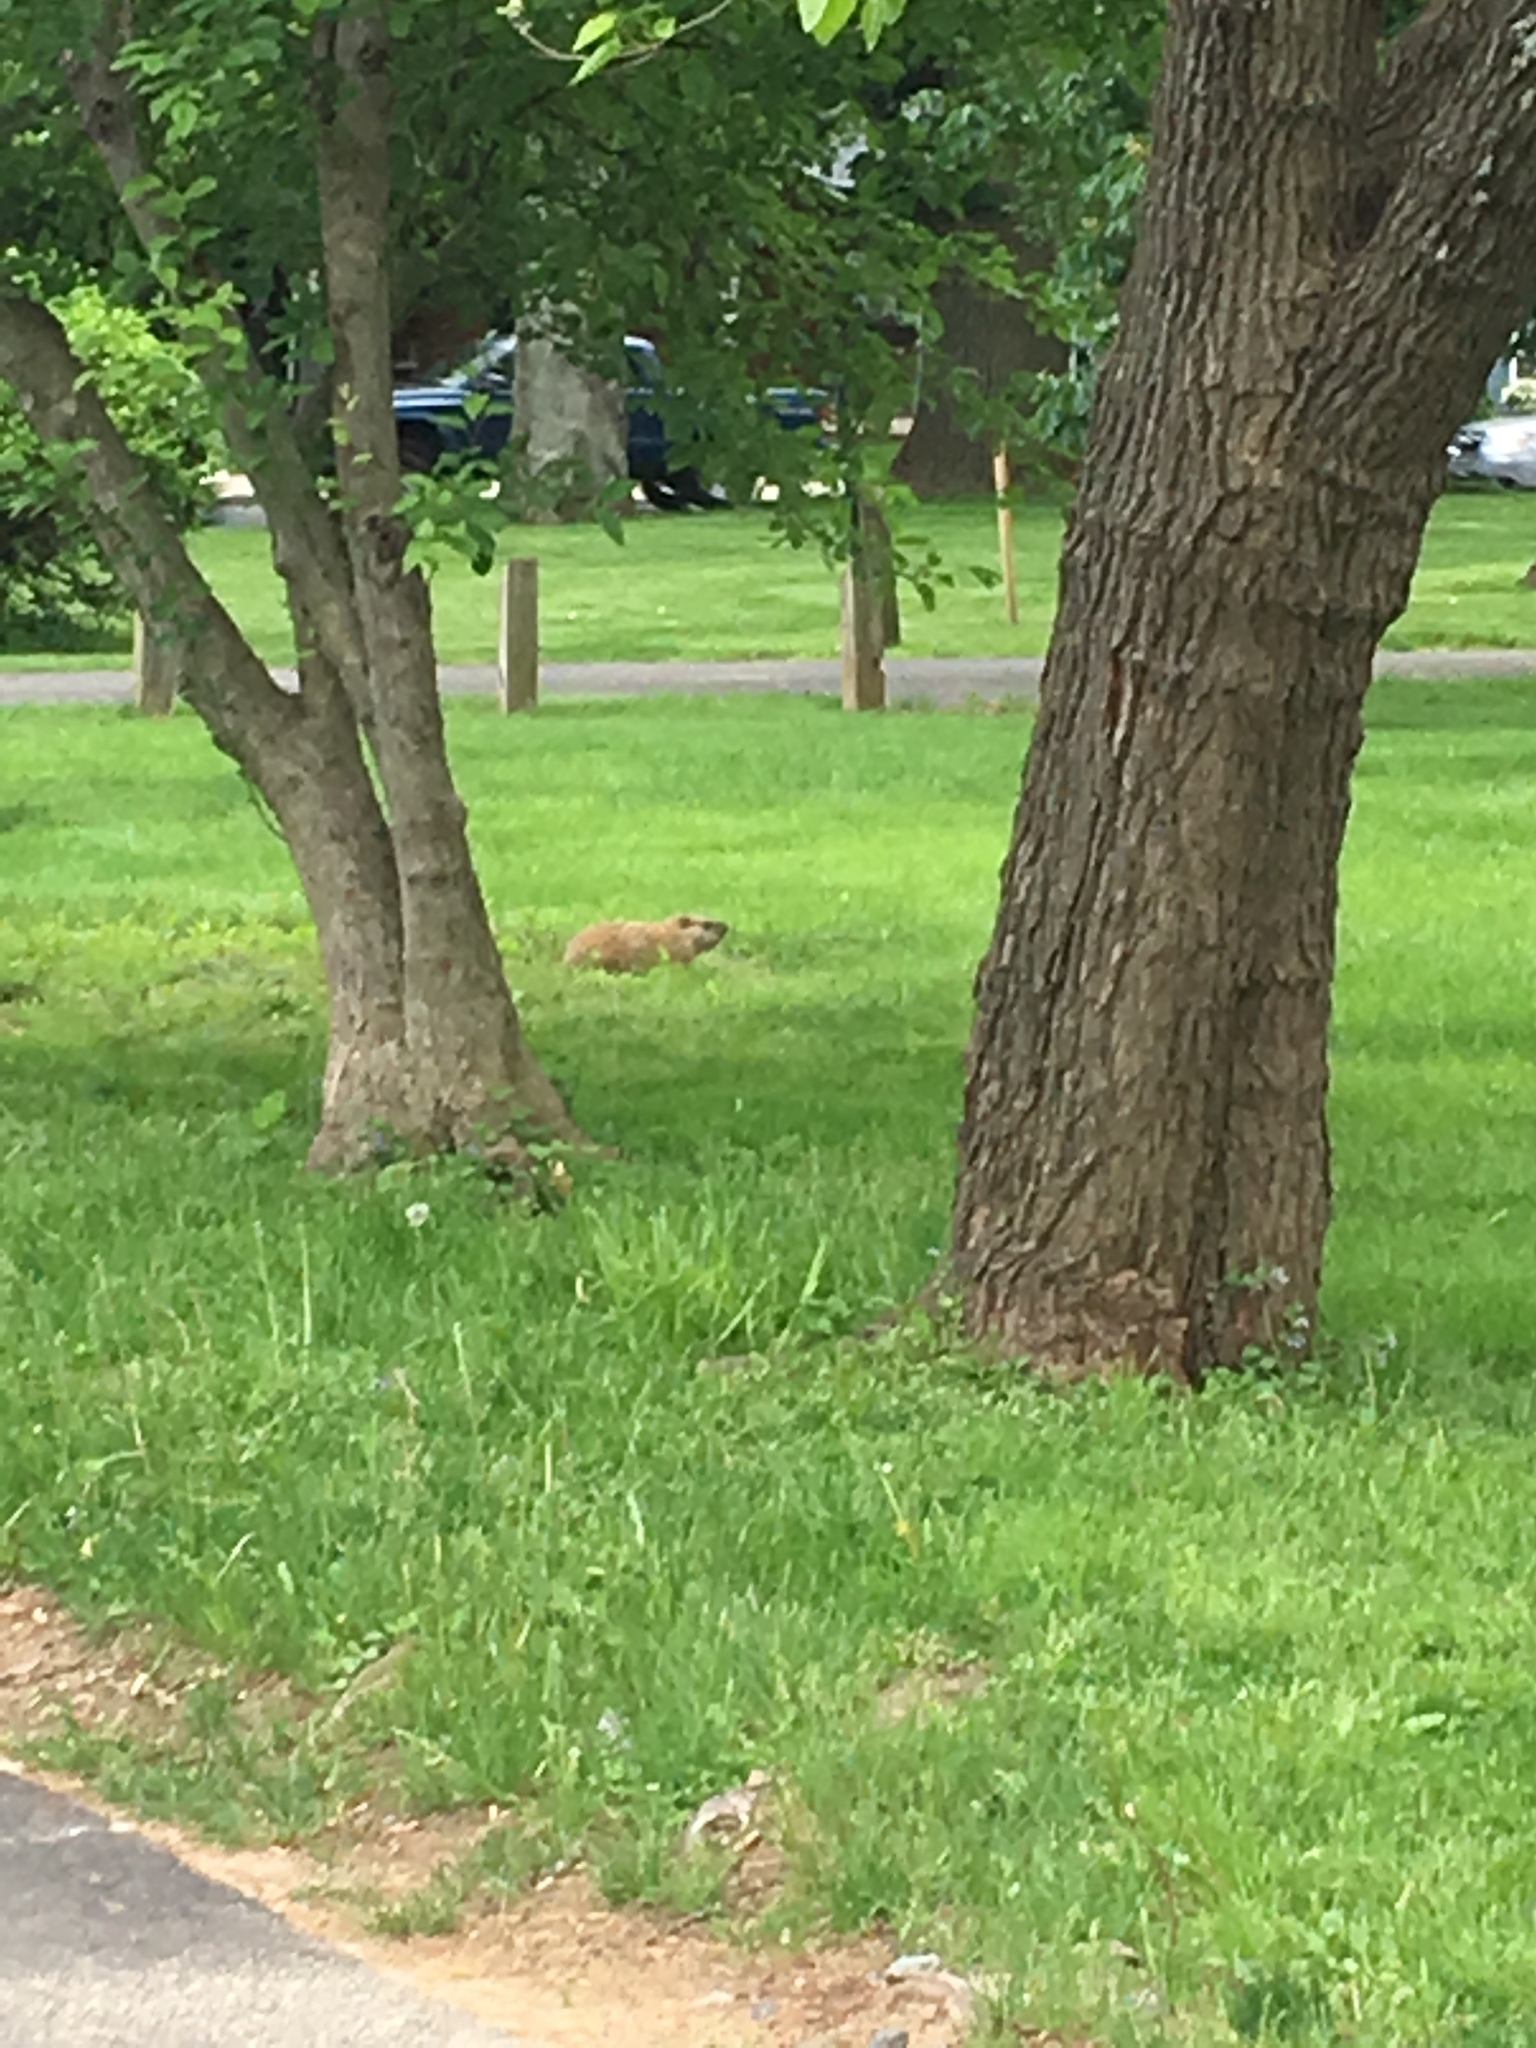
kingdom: Animalia
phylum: Chordata
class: Mammalia
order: Rodentia
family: Sciuridae
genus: Marmota
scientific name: Marmota monax
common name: Groundhog
